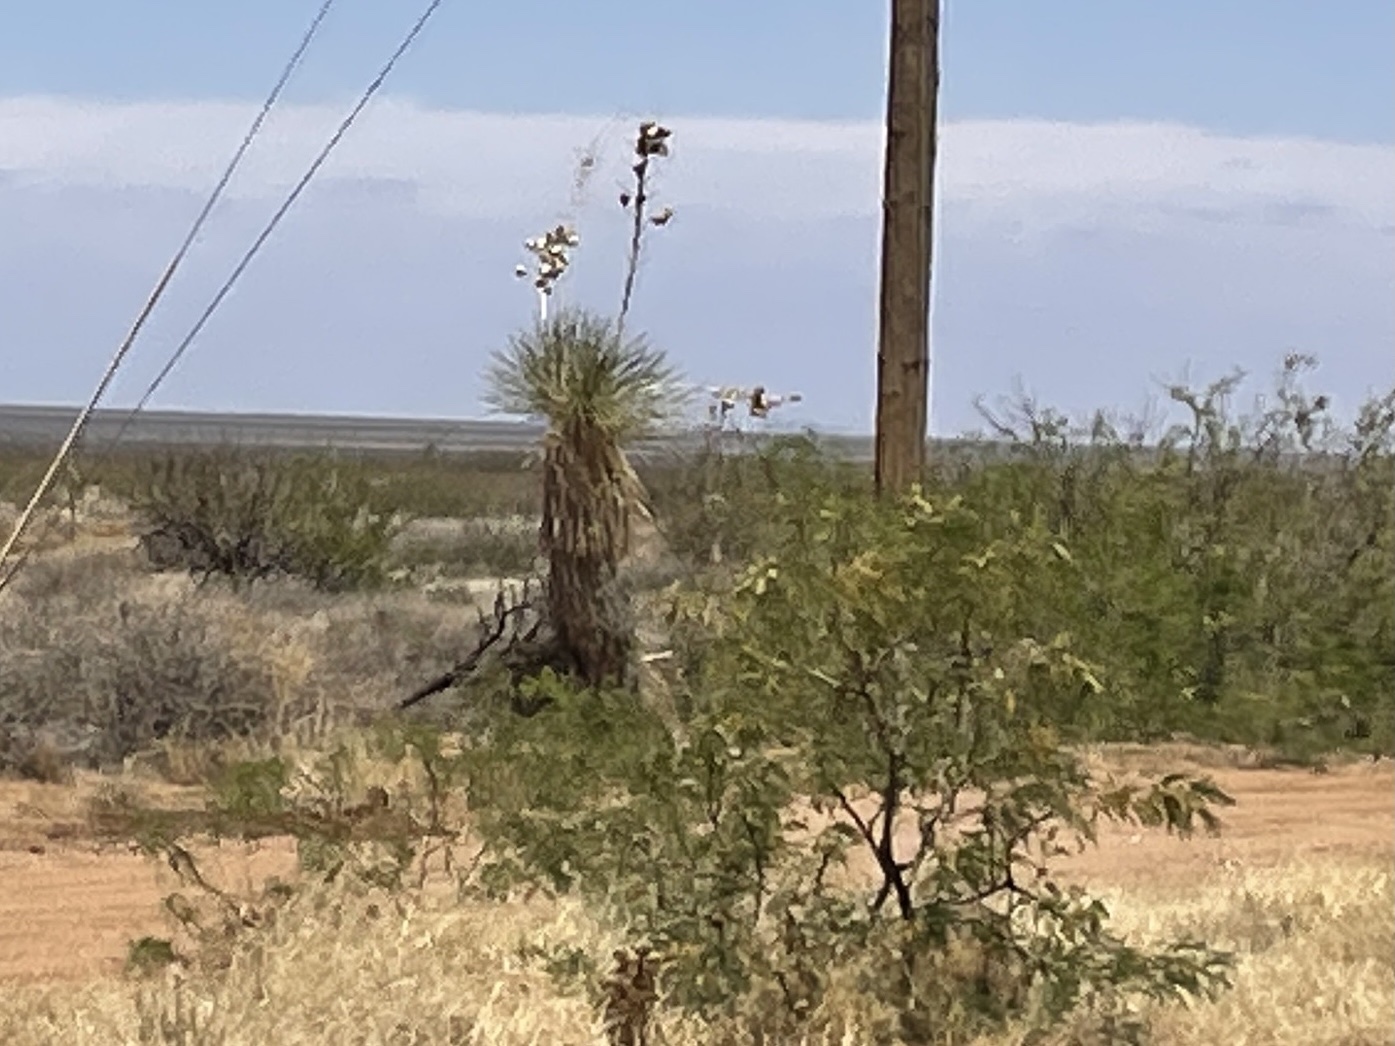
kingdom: Plantae
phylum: Tracheophyta
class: Liliopsida
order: Asparagales
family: Asparagaceae
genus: Yucca
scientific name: Yucca elata
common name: Palmella
